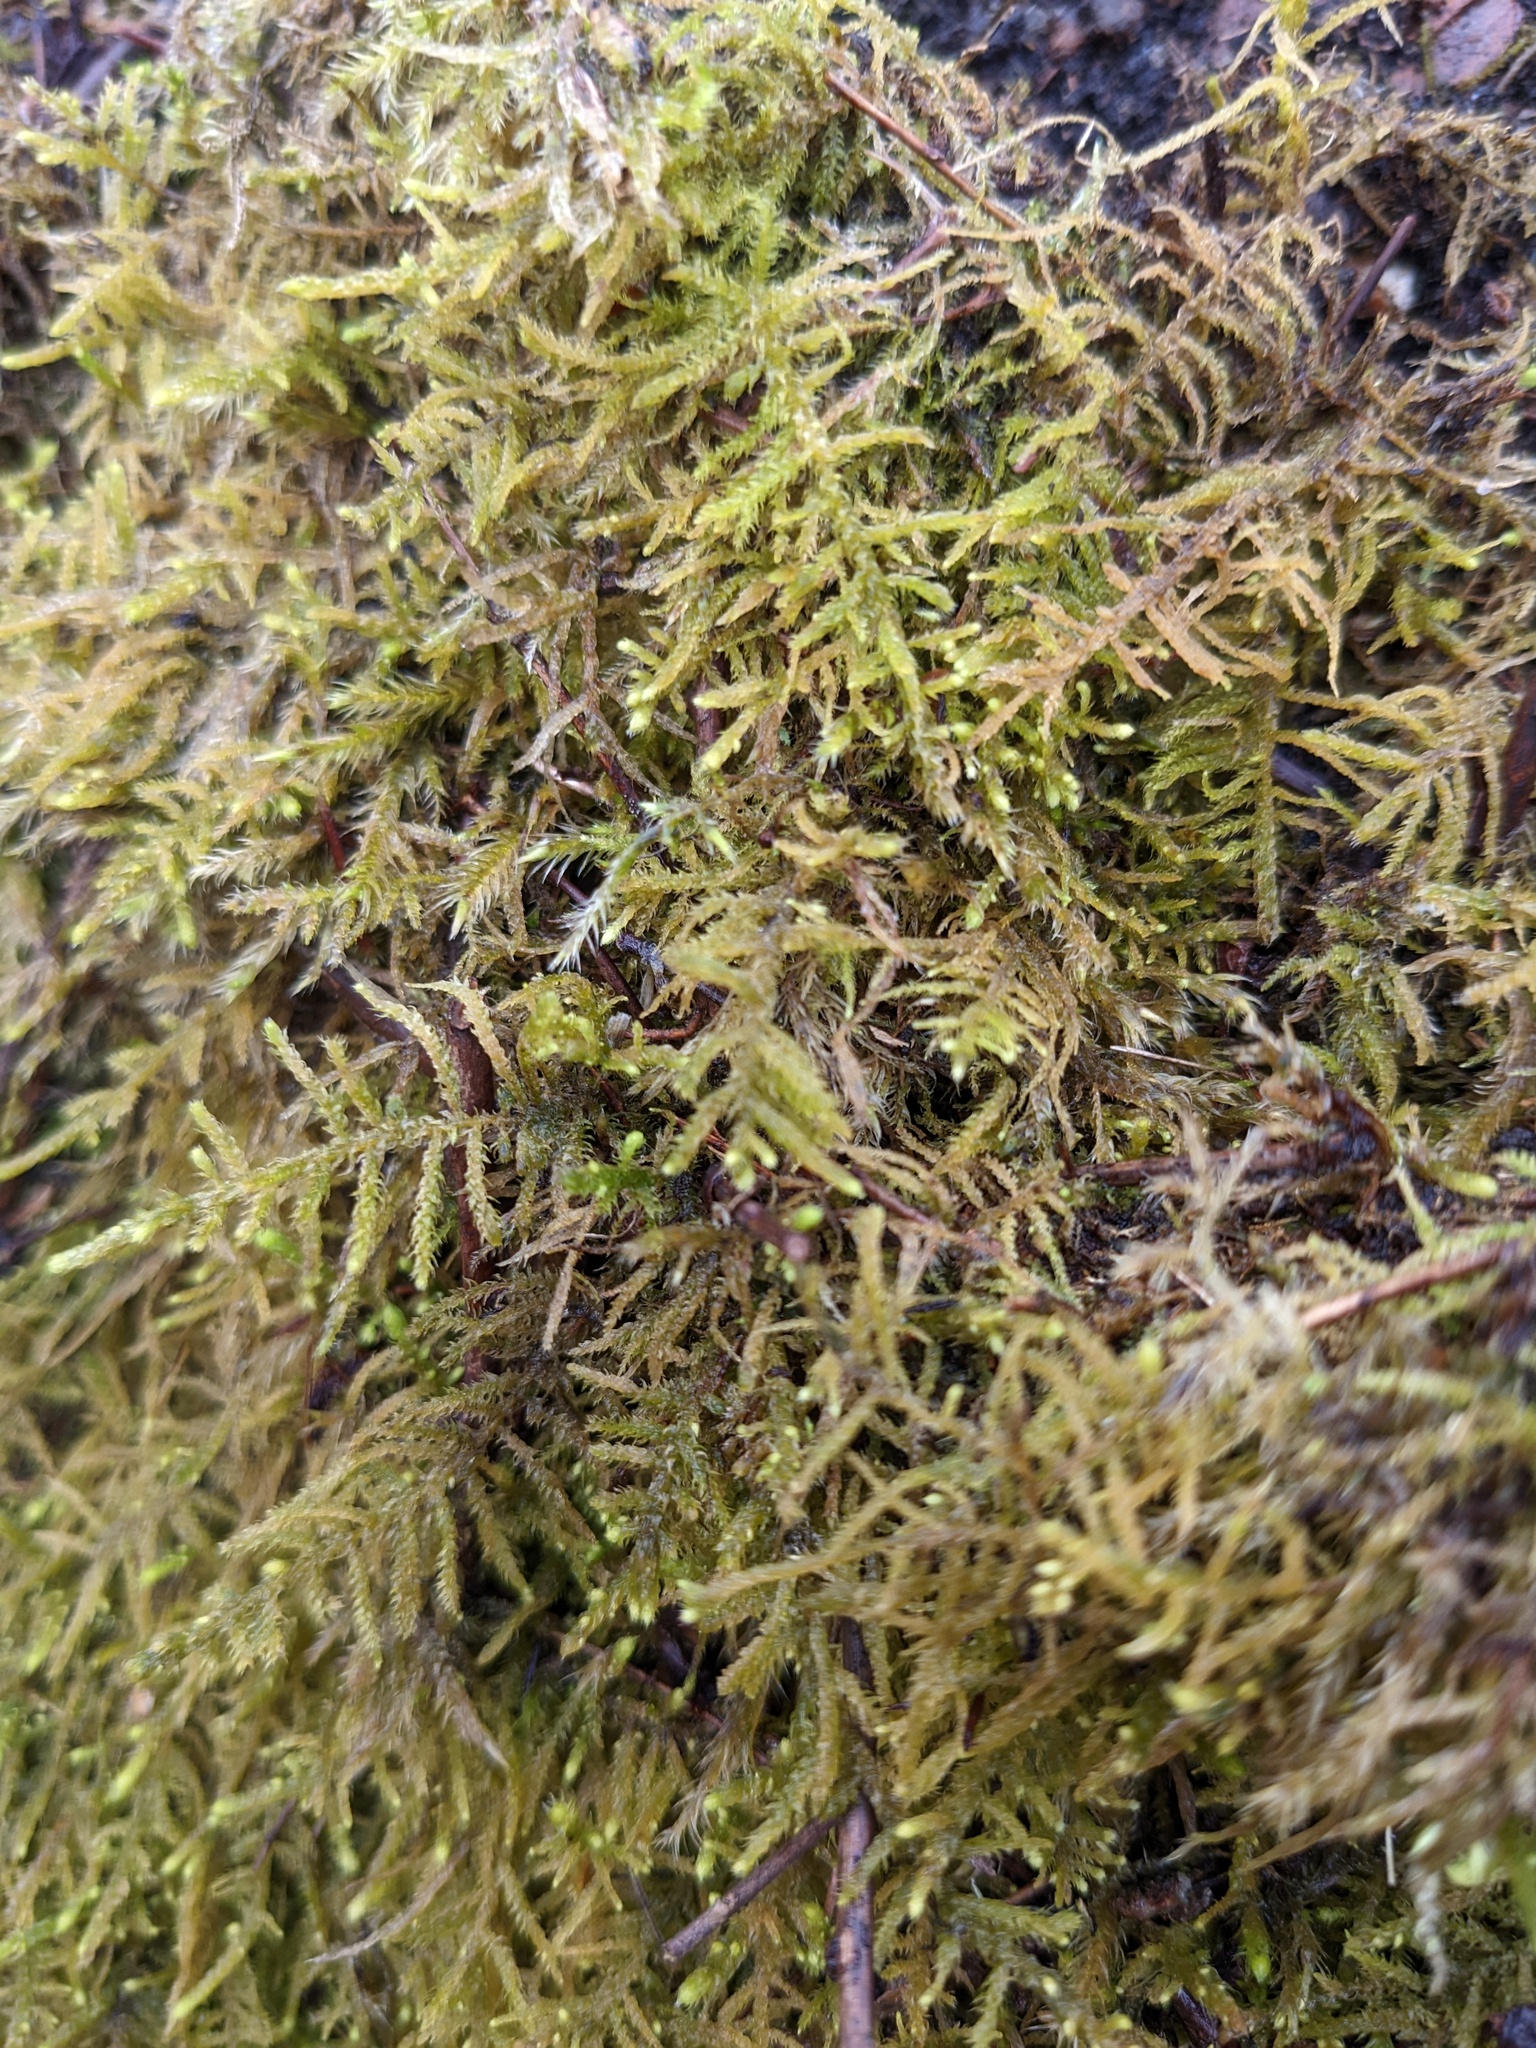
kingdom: Plantae
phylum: Bryophyta
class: Bryopsida
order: Hypnales
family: Brachytheciaceae
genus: Claopodium
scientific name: Claopodium crispifolium
